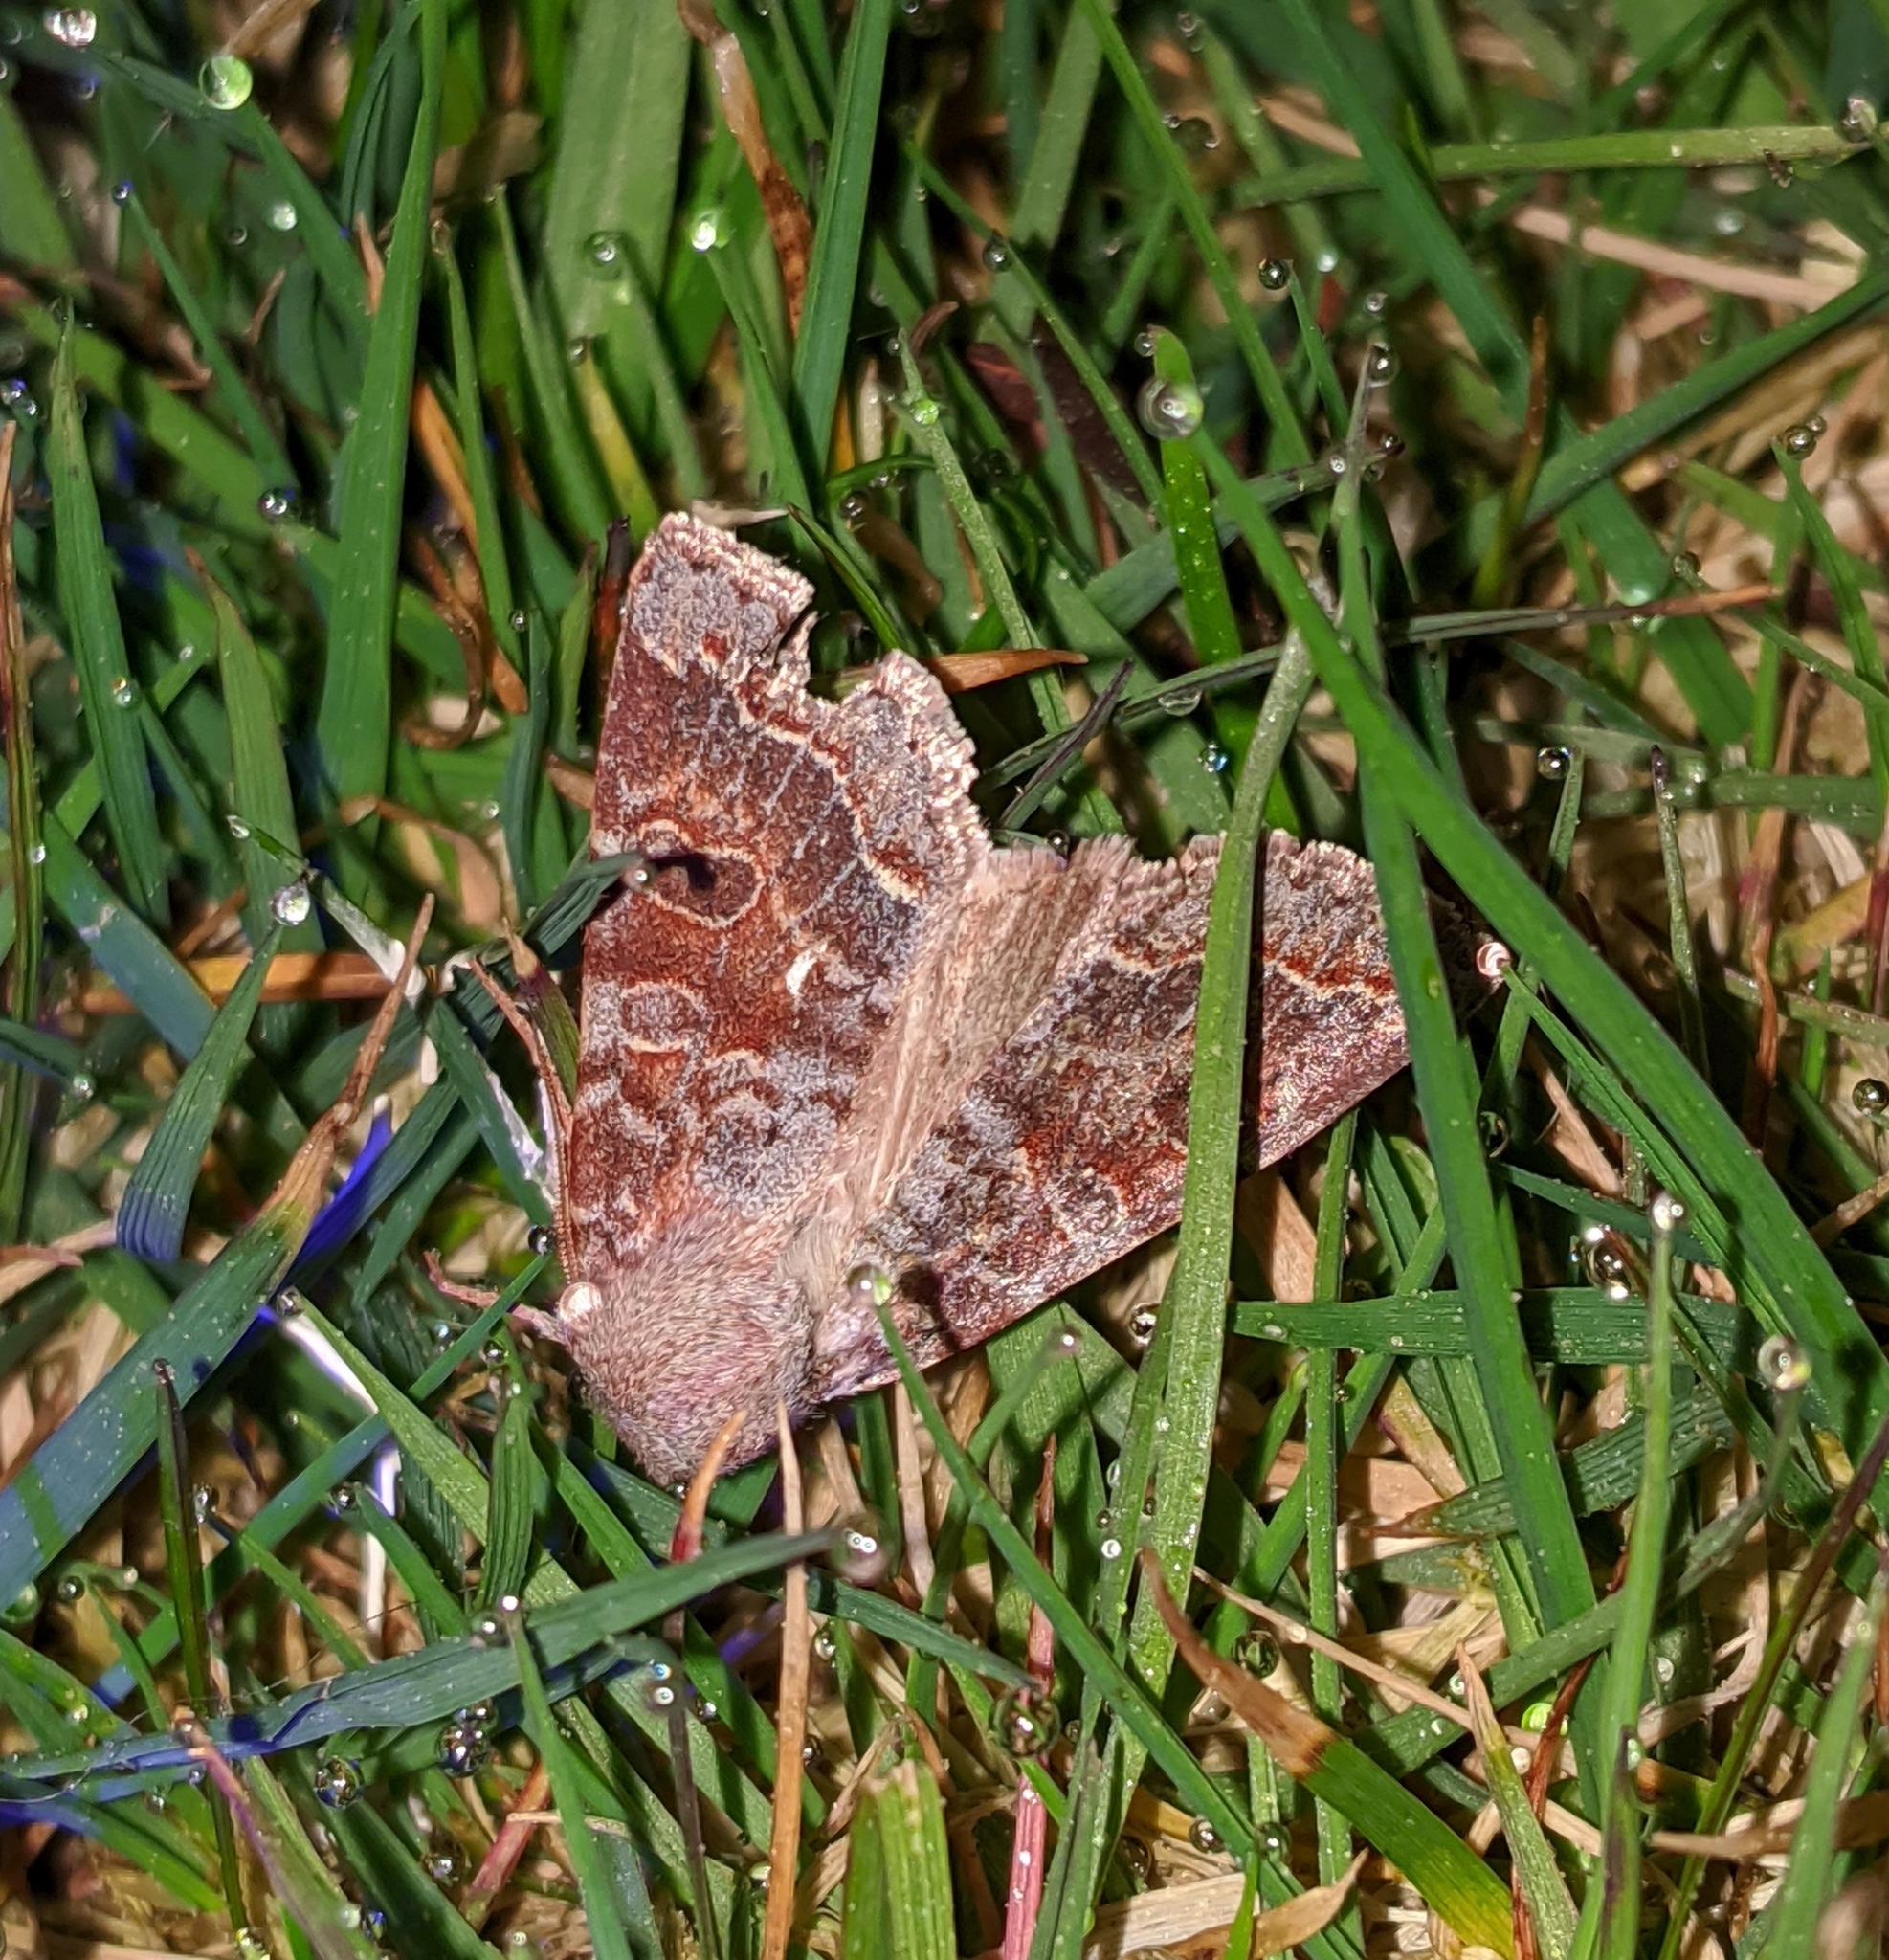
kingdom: Animalia
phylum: Arthropoda
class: Insecta
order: Lepidoptera
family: Noctuidae
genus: Orthosia
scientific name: Orthosia revicta
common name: Rusty whitesided caterpillar
